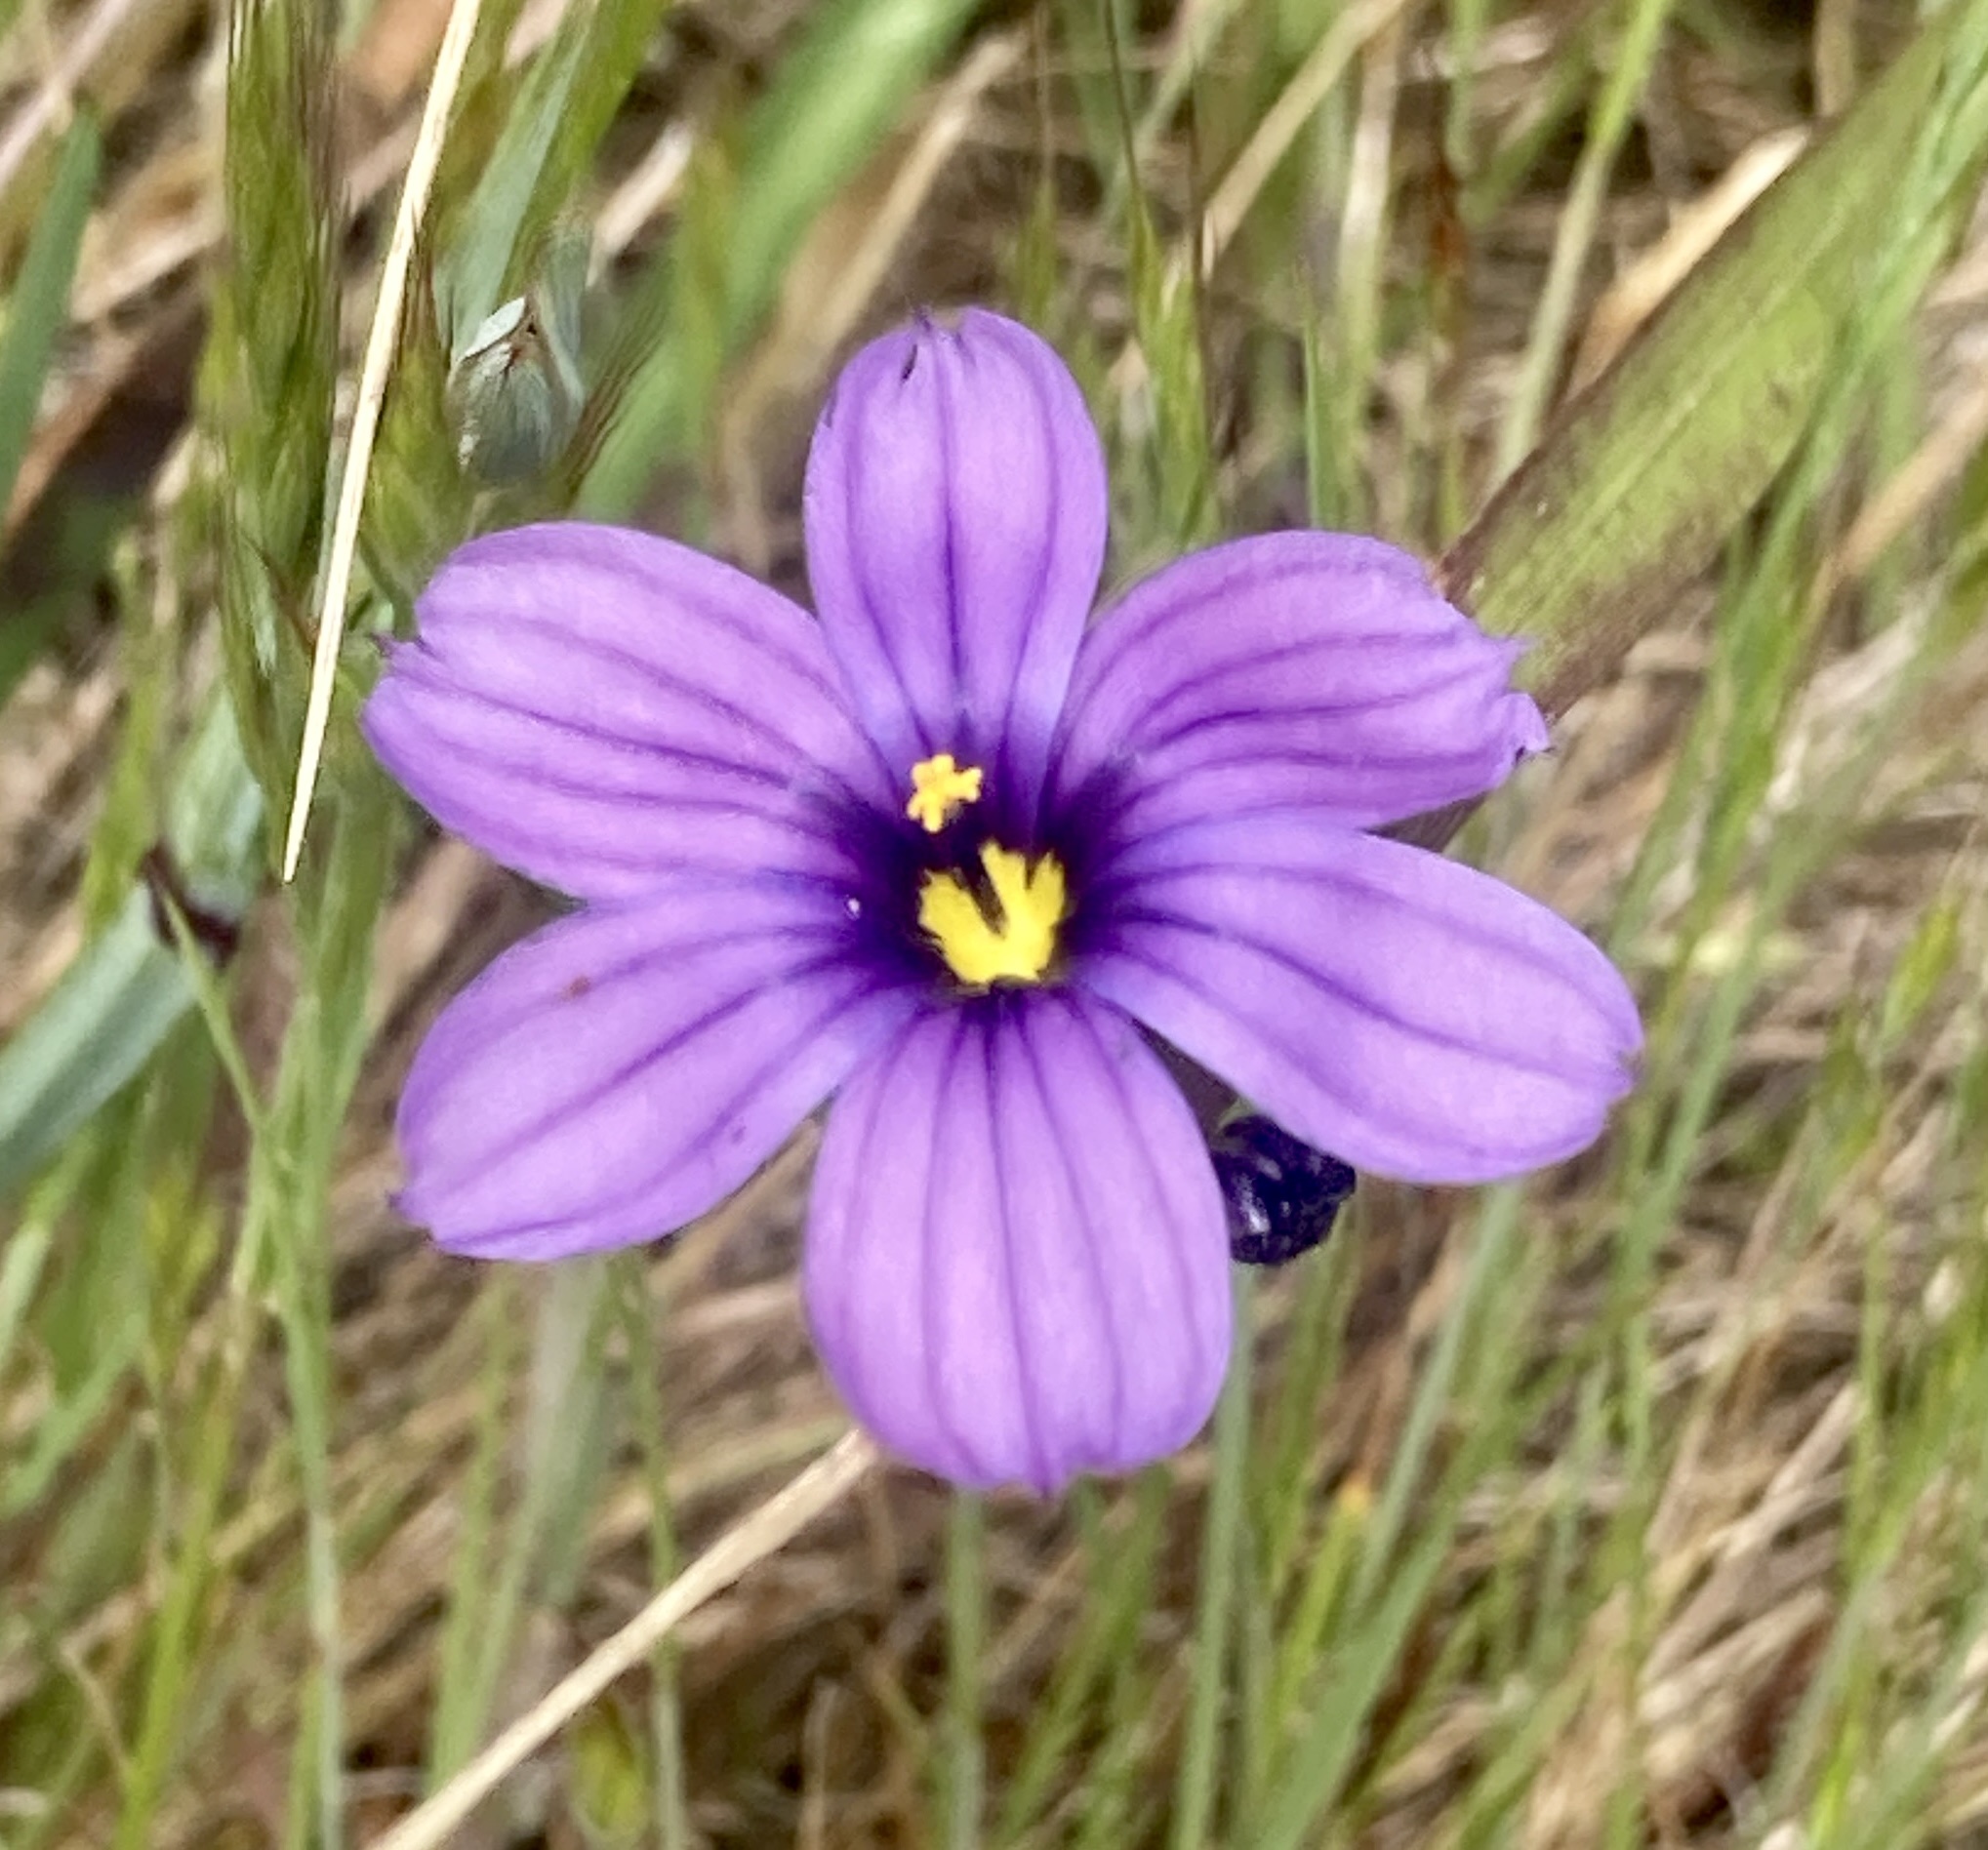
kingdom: Plantae
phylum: Tracheophyta
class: Liliopsida
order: Asparagales
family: Iridaceae
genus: Sisyrinchium
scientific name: Sisyrinchium bellum
